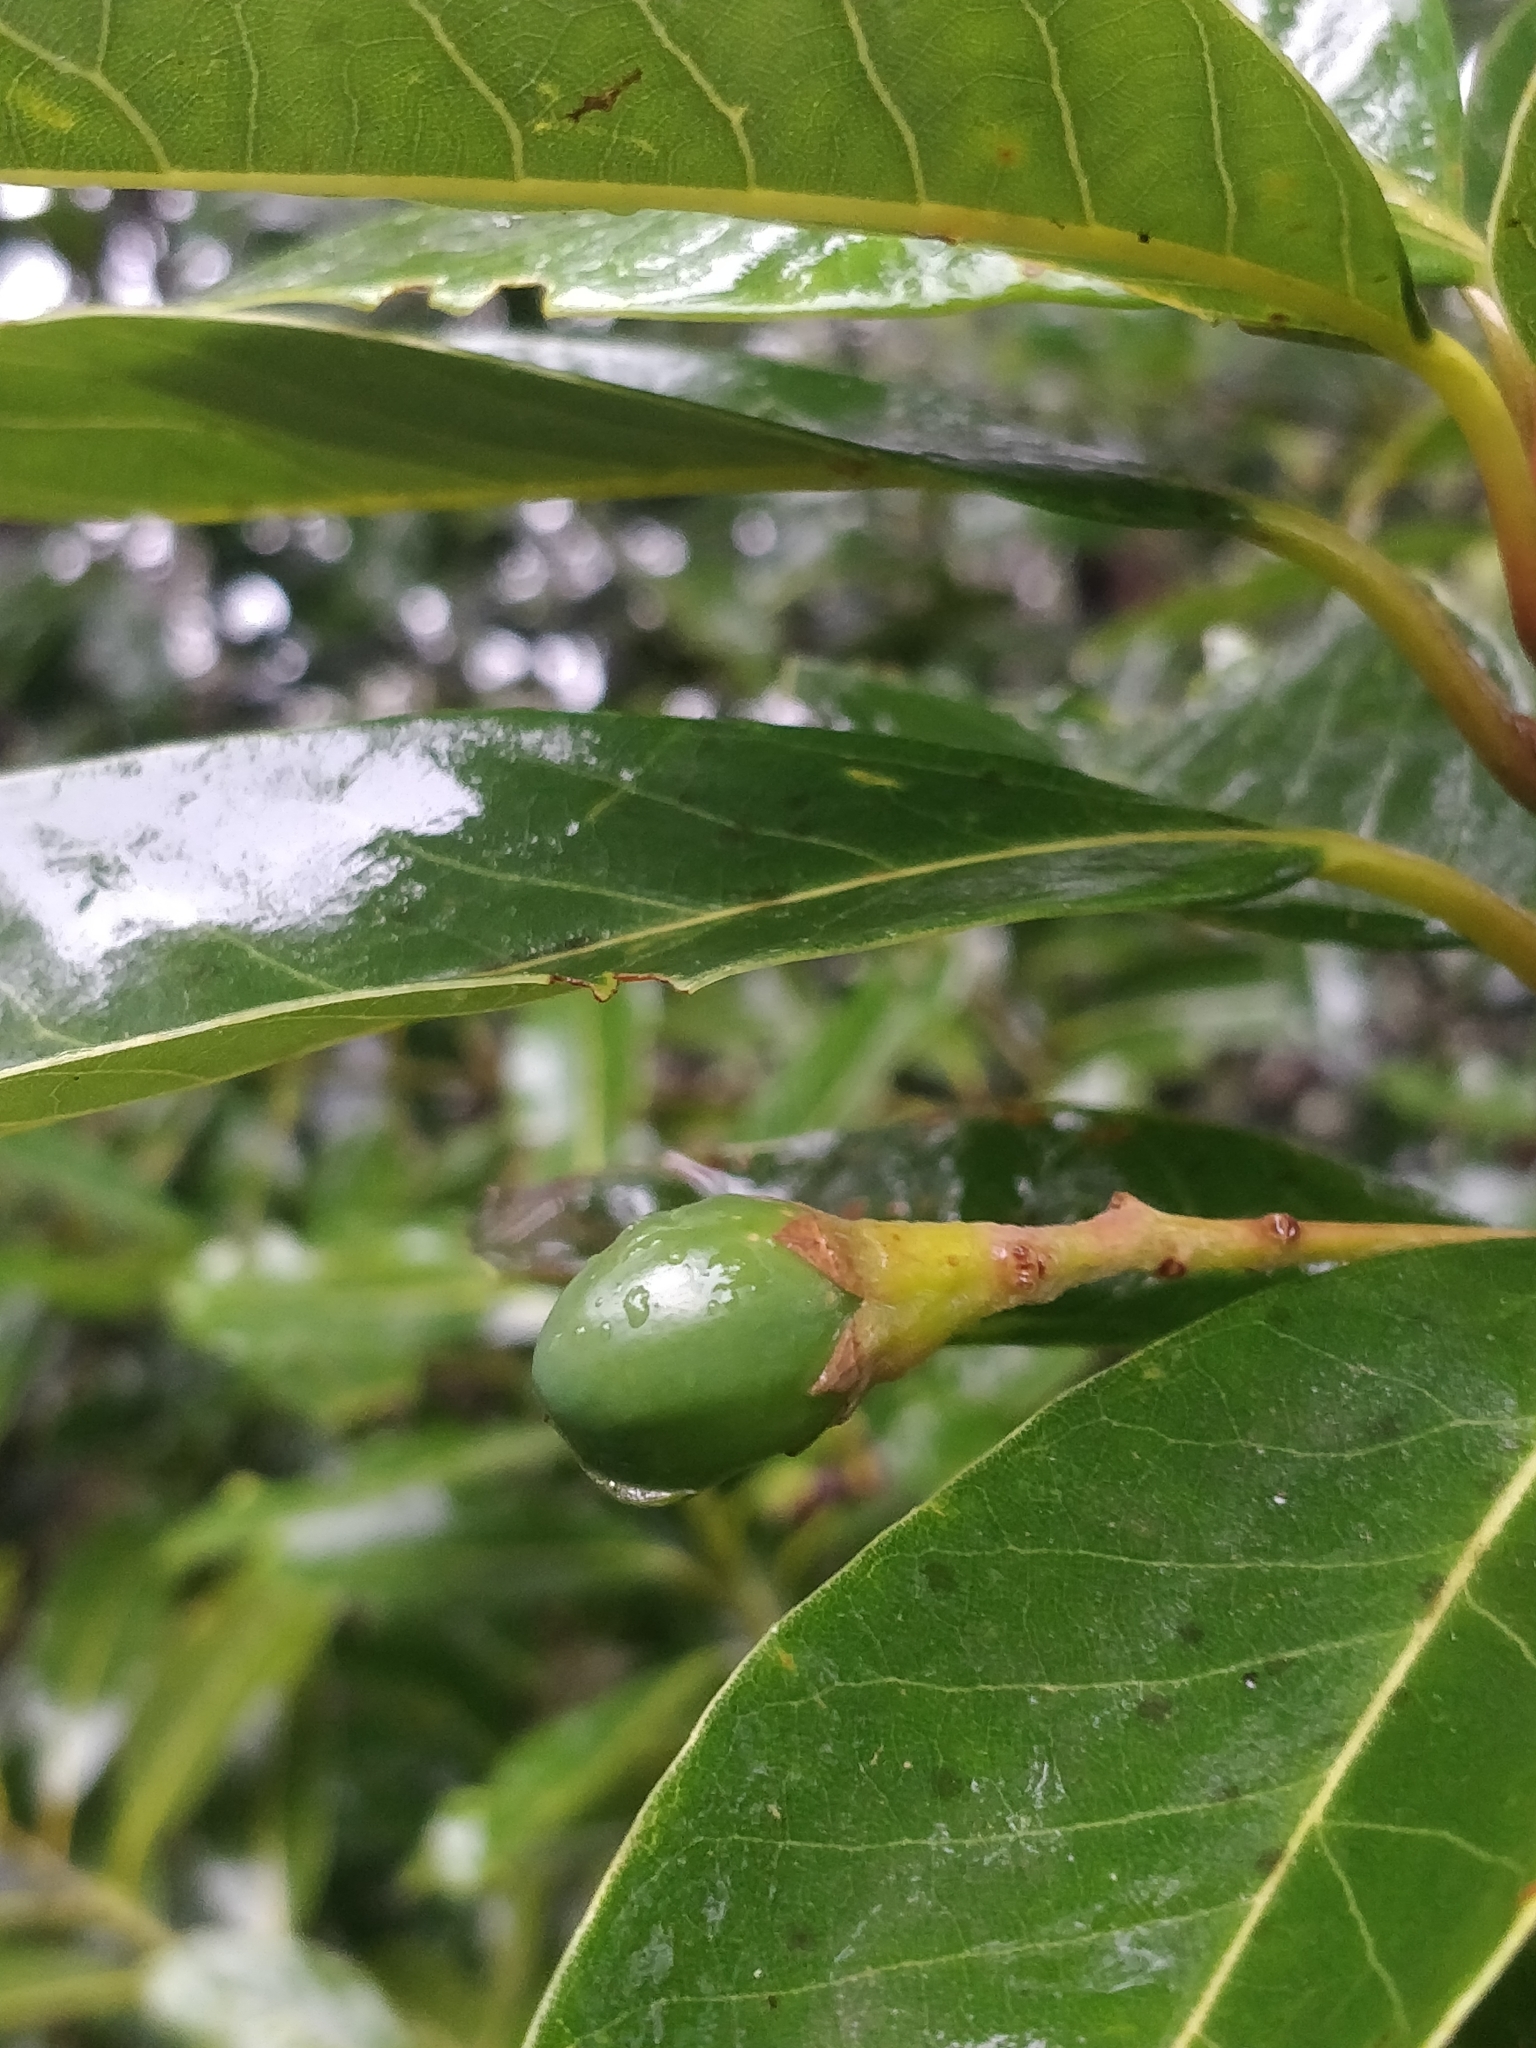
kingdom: Plantae
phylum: Tracheophyta
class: Magnoliopsida
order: Laurales
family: Lauraceae
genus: Persea
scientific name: Persea indica
